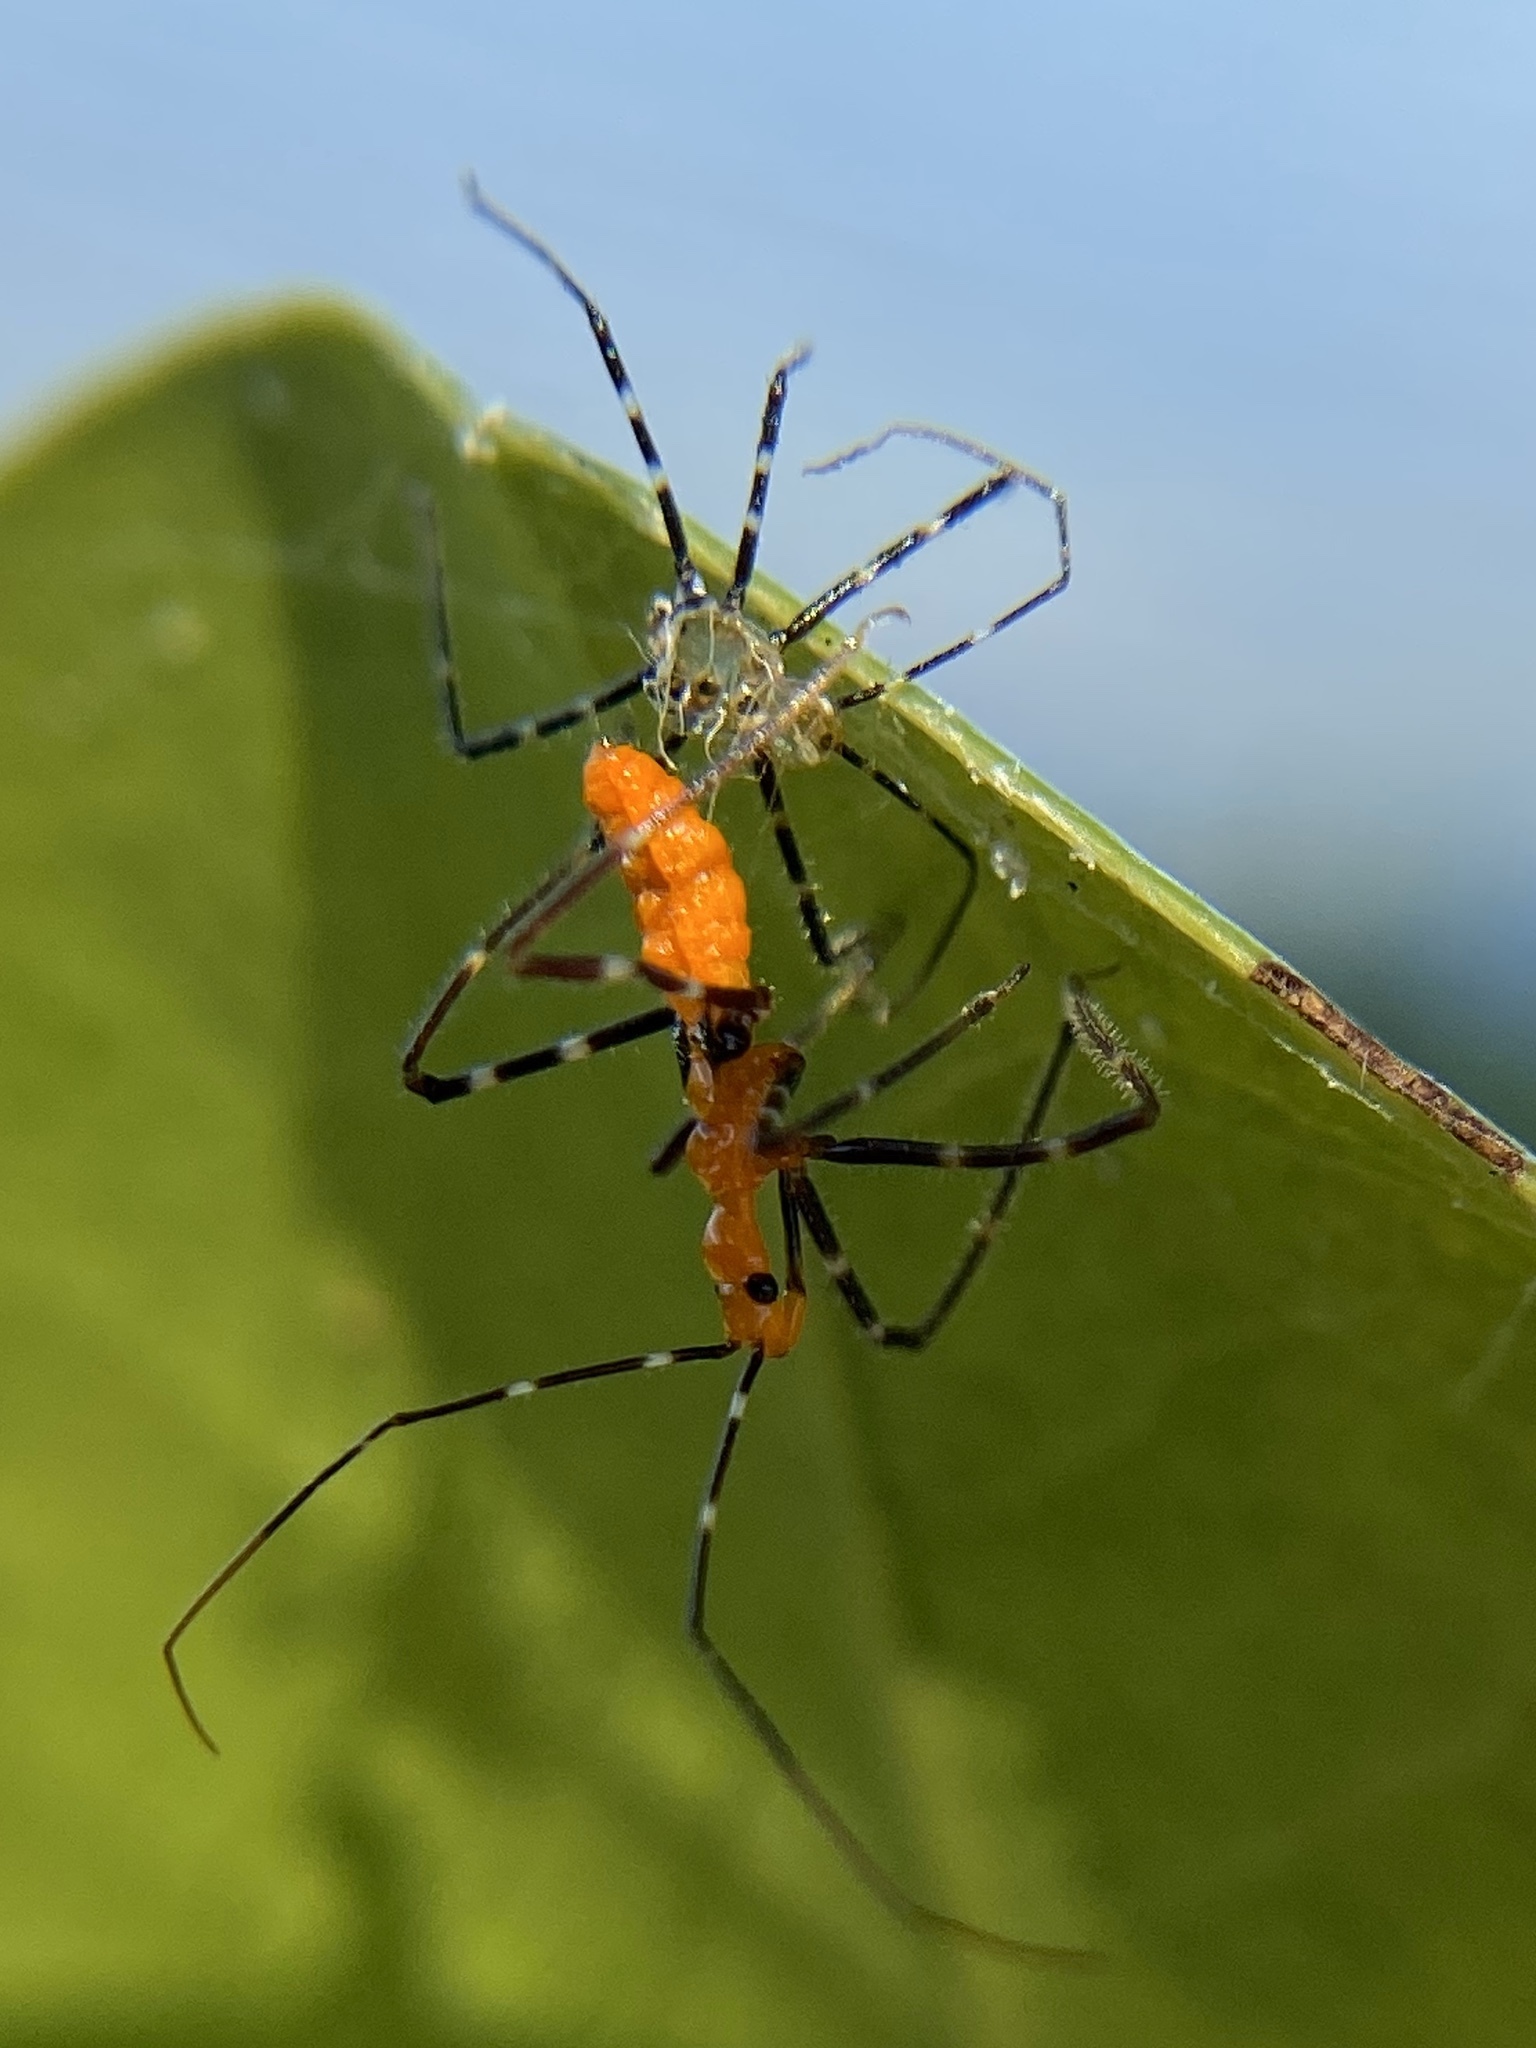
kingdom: Animalia
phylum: Arthropoda
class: Insecta
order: Hemiptera
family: Reduviidae
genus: Zelus
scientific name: Zelus longipes
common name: Milkweed assassin bug
